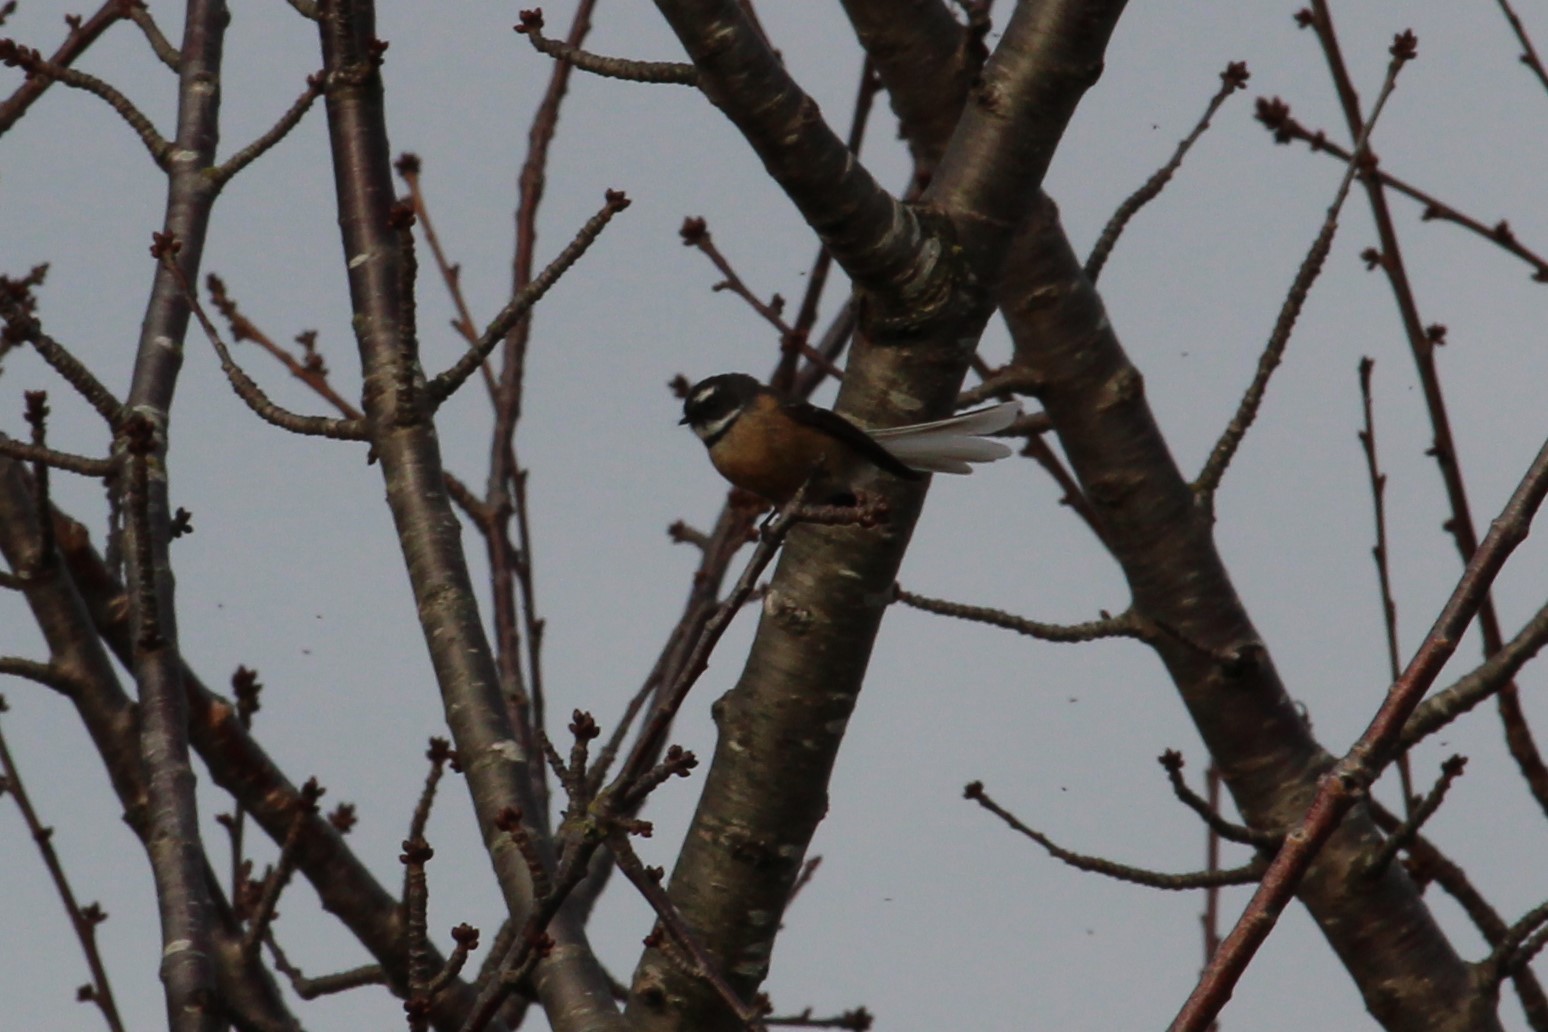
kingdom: Animalia
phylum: Chordata
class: Aves
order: Passeriformes
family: Rhipiduridae
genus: Rhipidura
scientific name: Rhipidura fuliginosa
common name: New zealand fantail
